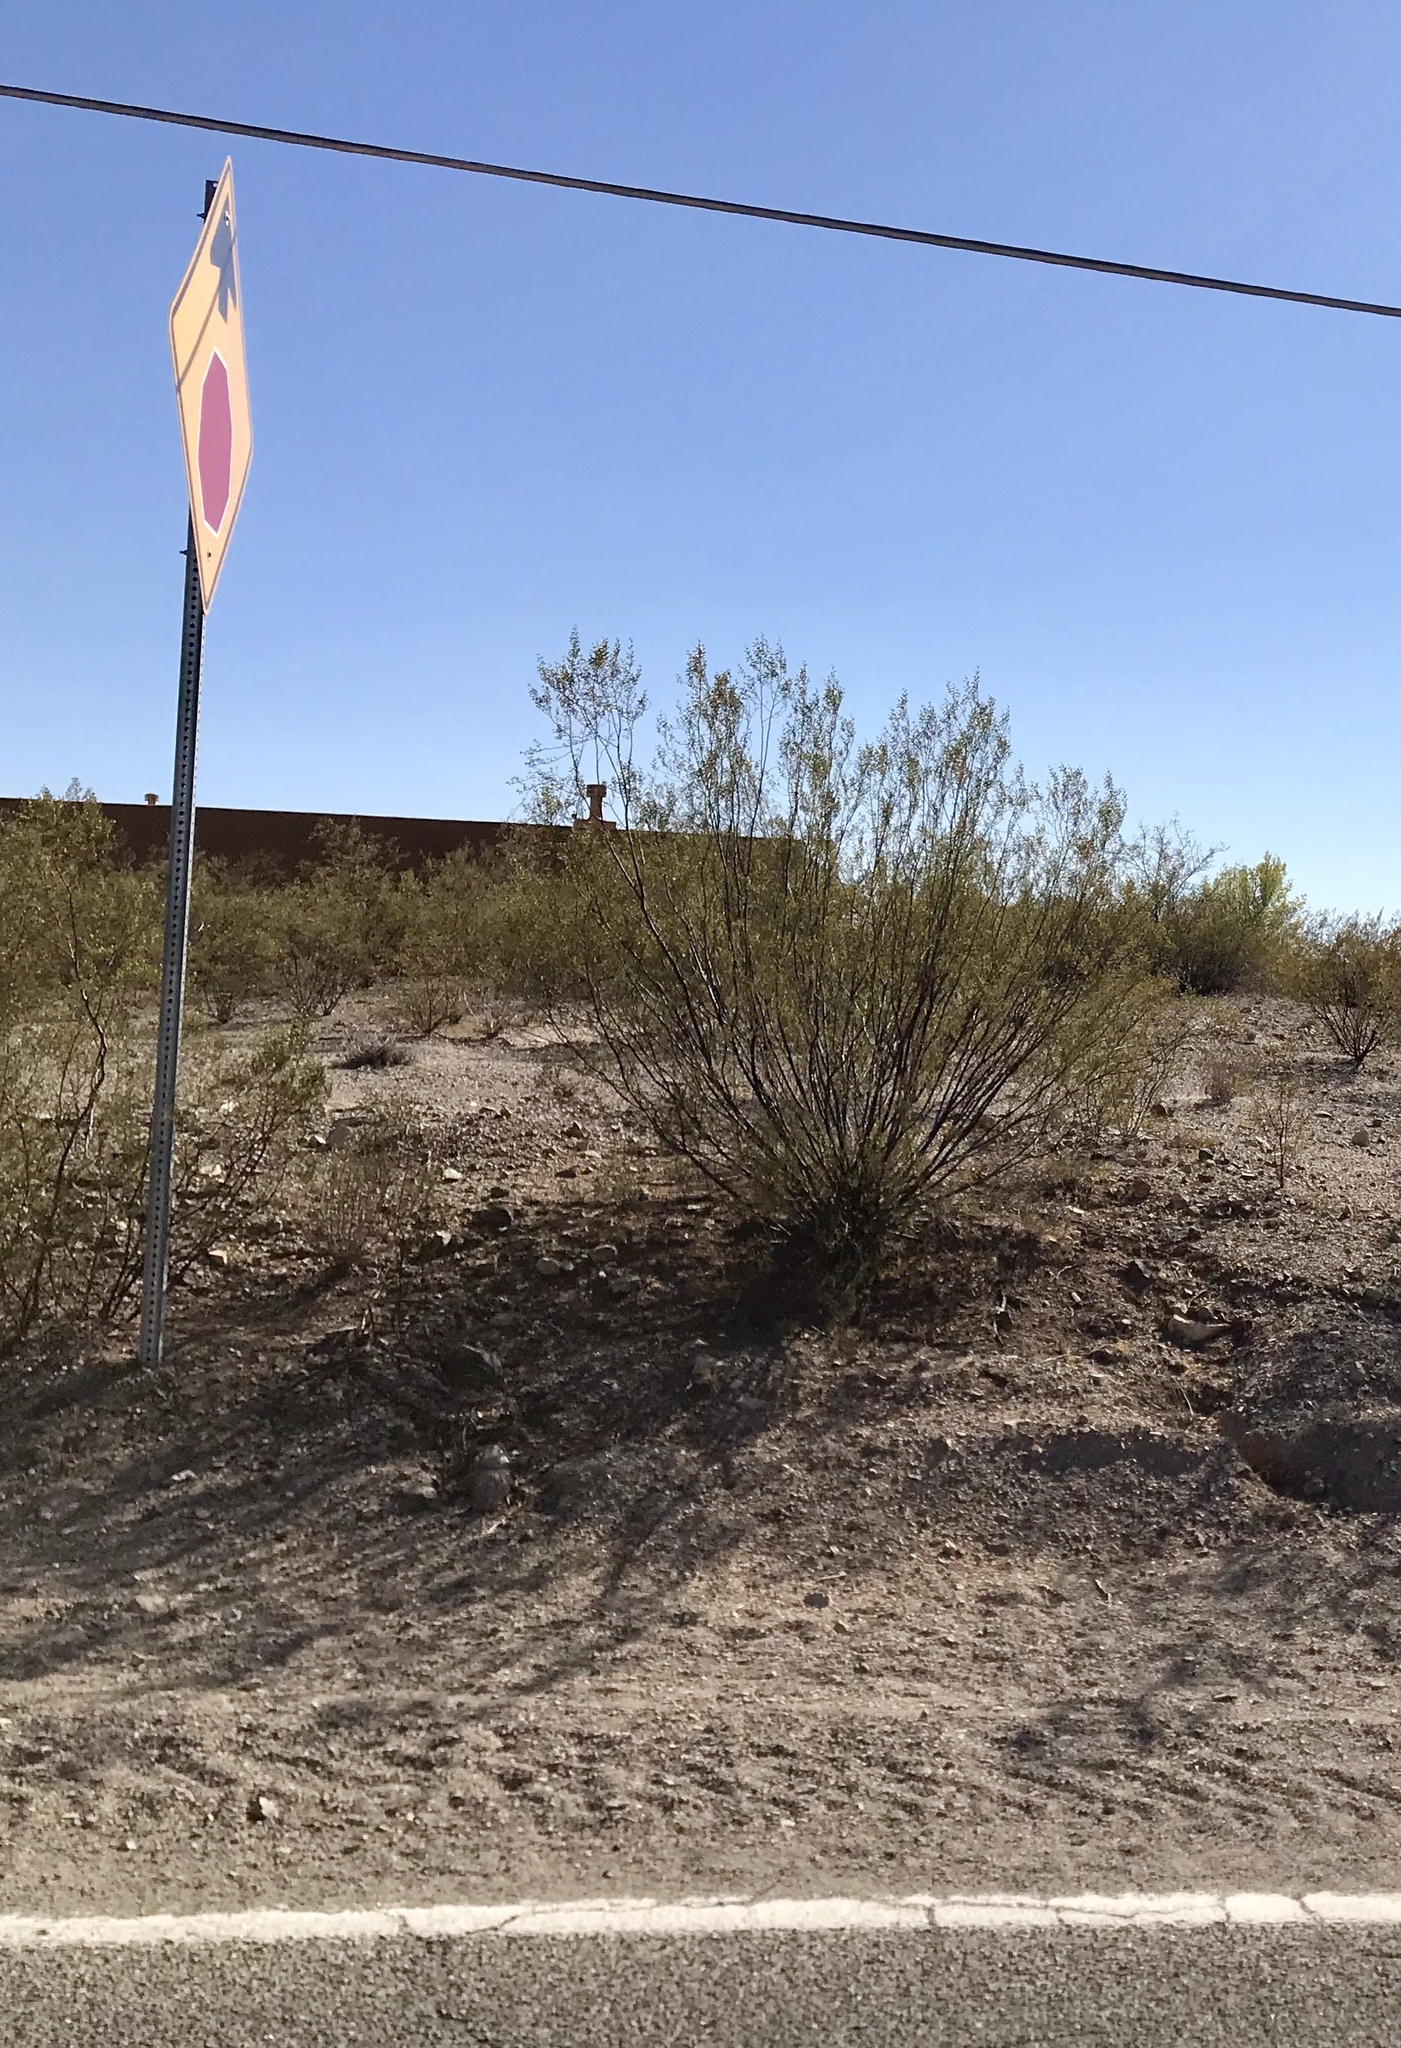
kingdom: Plantae
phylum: Tracheophyta
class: Magnoliopsida
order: Zygophyllales
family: Zygophyllaceae
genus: Larrea
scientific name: Larrea tridentata
